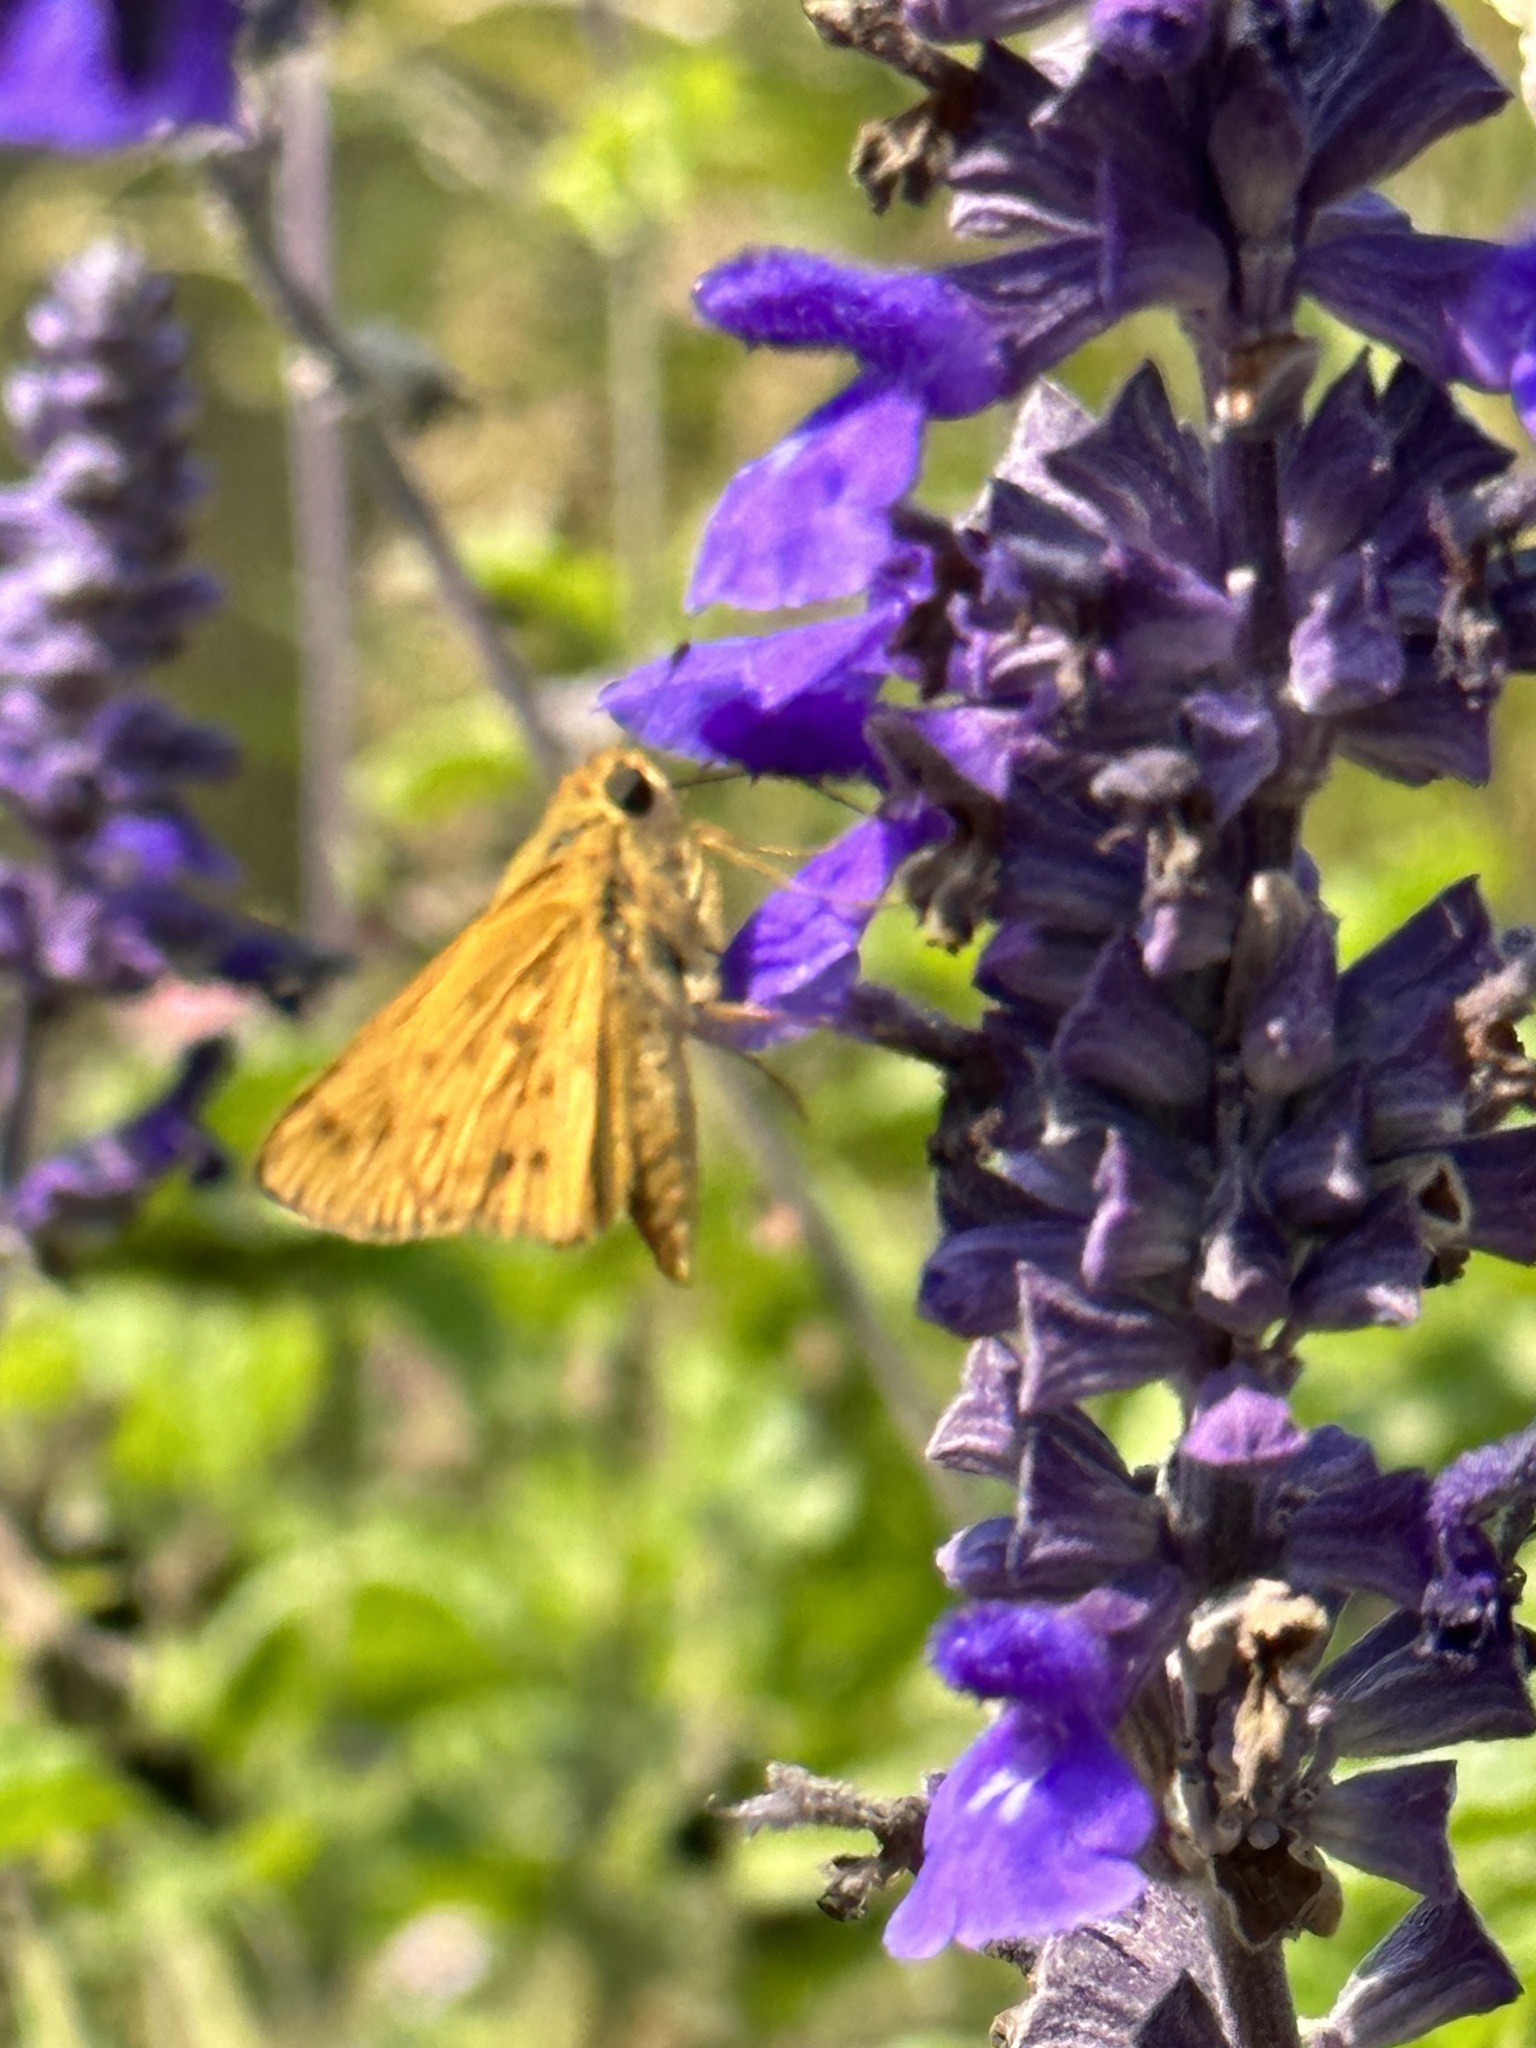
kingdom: Animalia
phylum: Arthropoda
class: Insecta
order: Lepidoptera
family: Hesperiidae
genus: Hylephila
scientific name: Hylephila phyleus
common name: Fiery skipper
